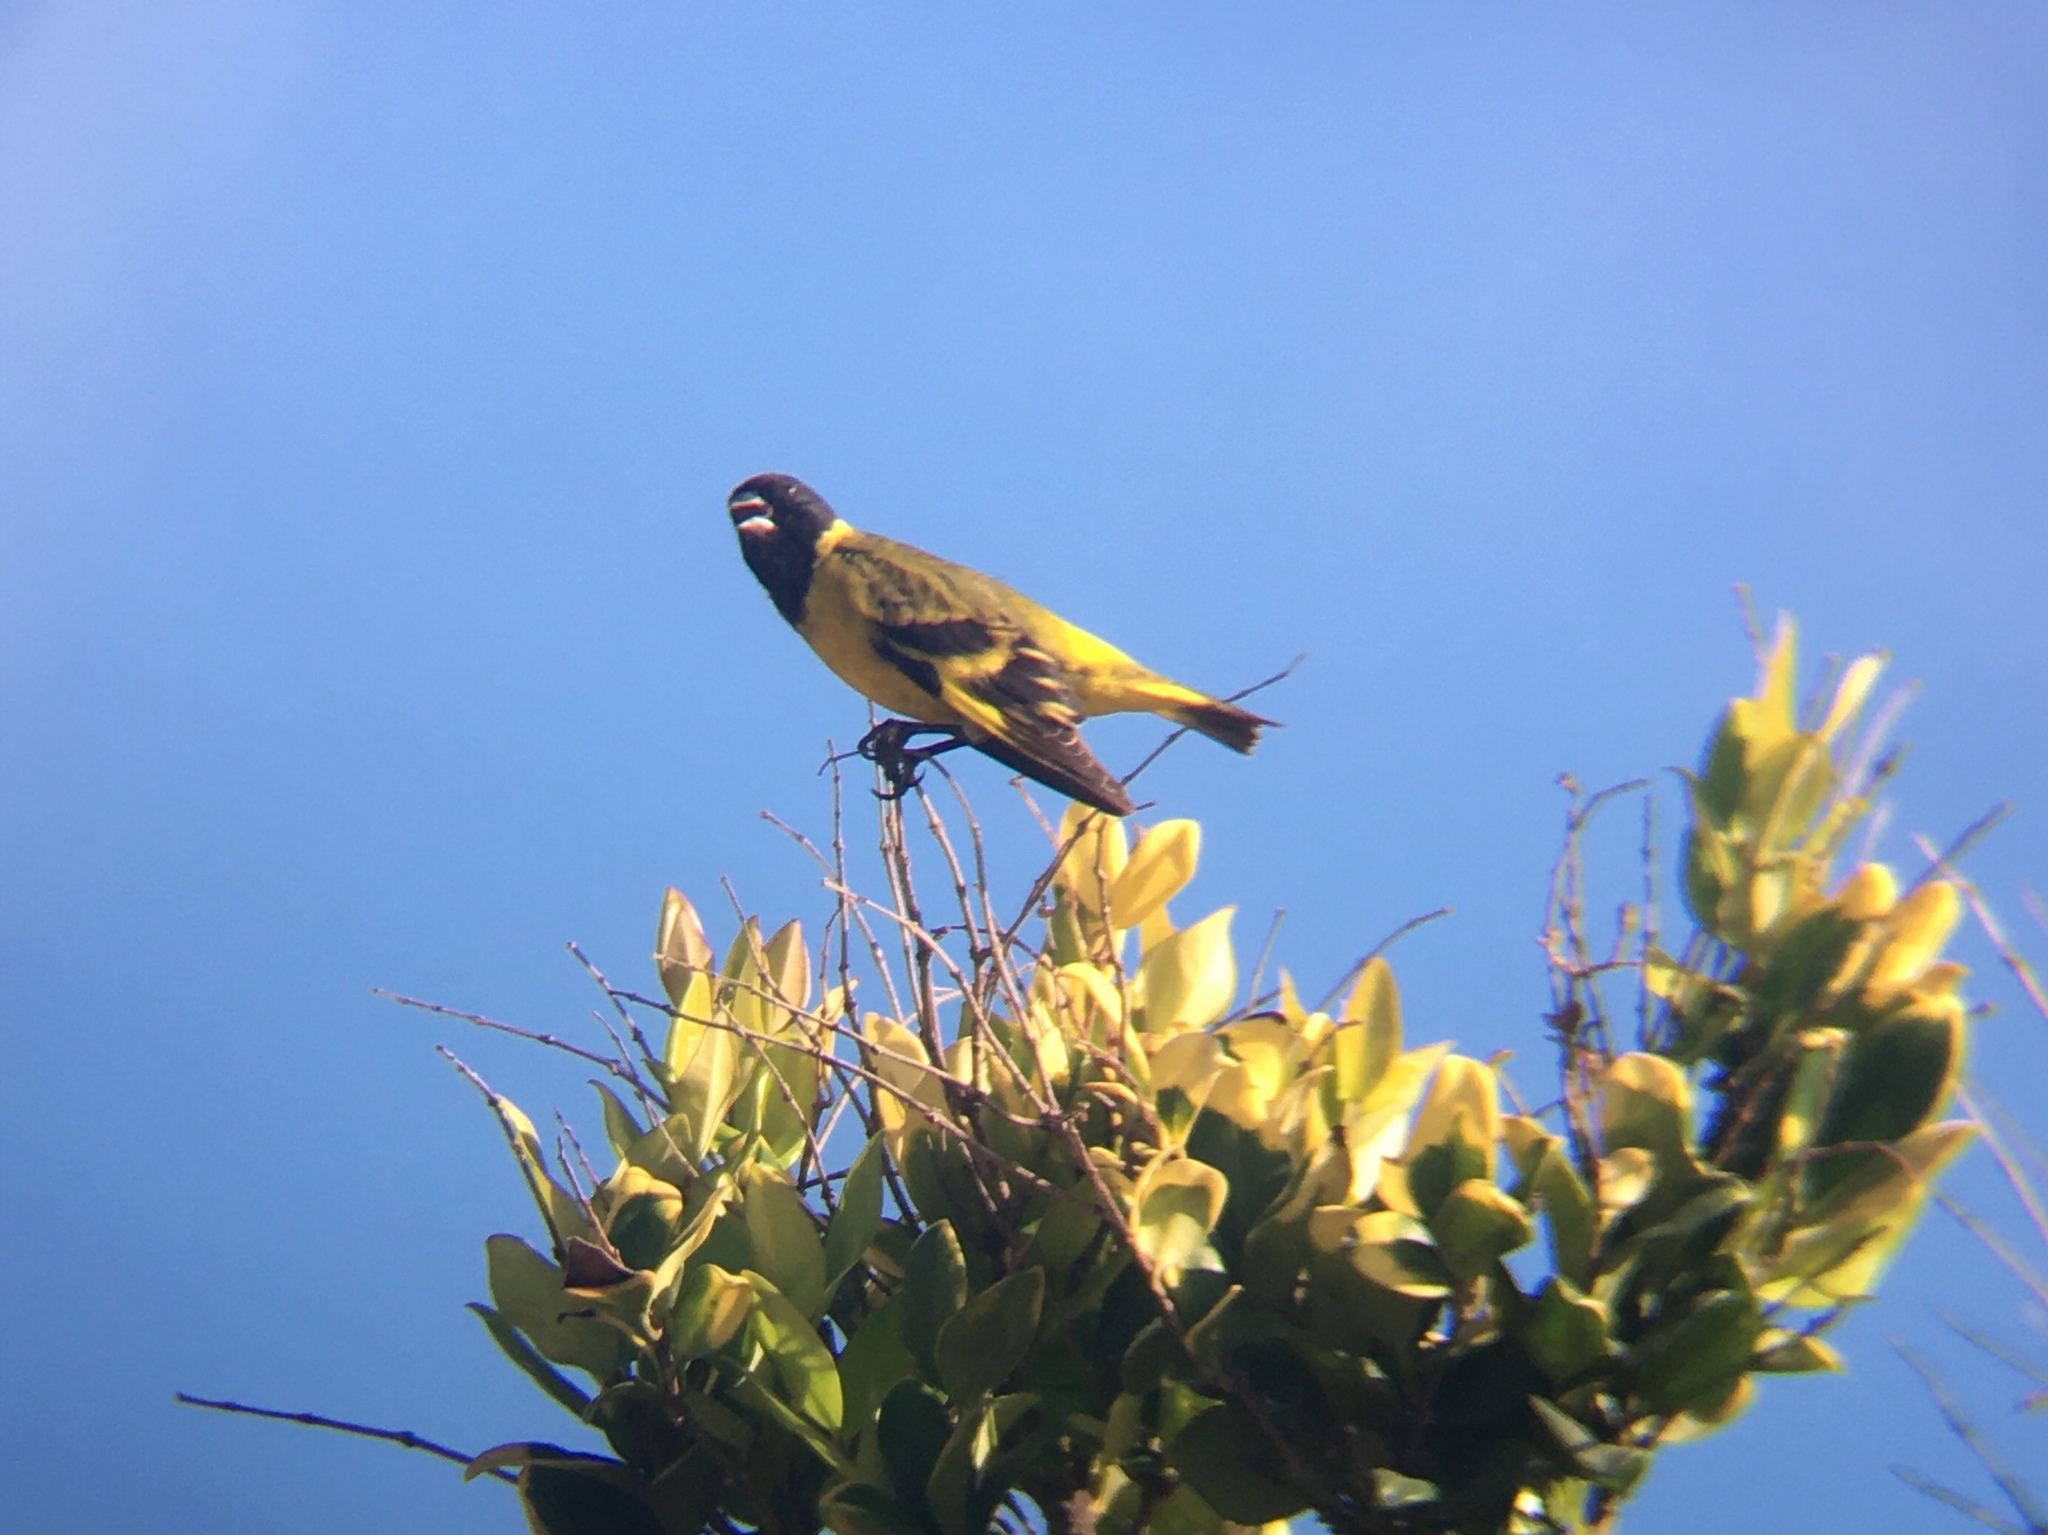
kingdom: Animalia
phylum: Chordata
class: Aves
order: Passeriformes
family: Fringillidae
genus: Spinus
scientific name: Spinus magellanicus
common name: Hooded siskin
